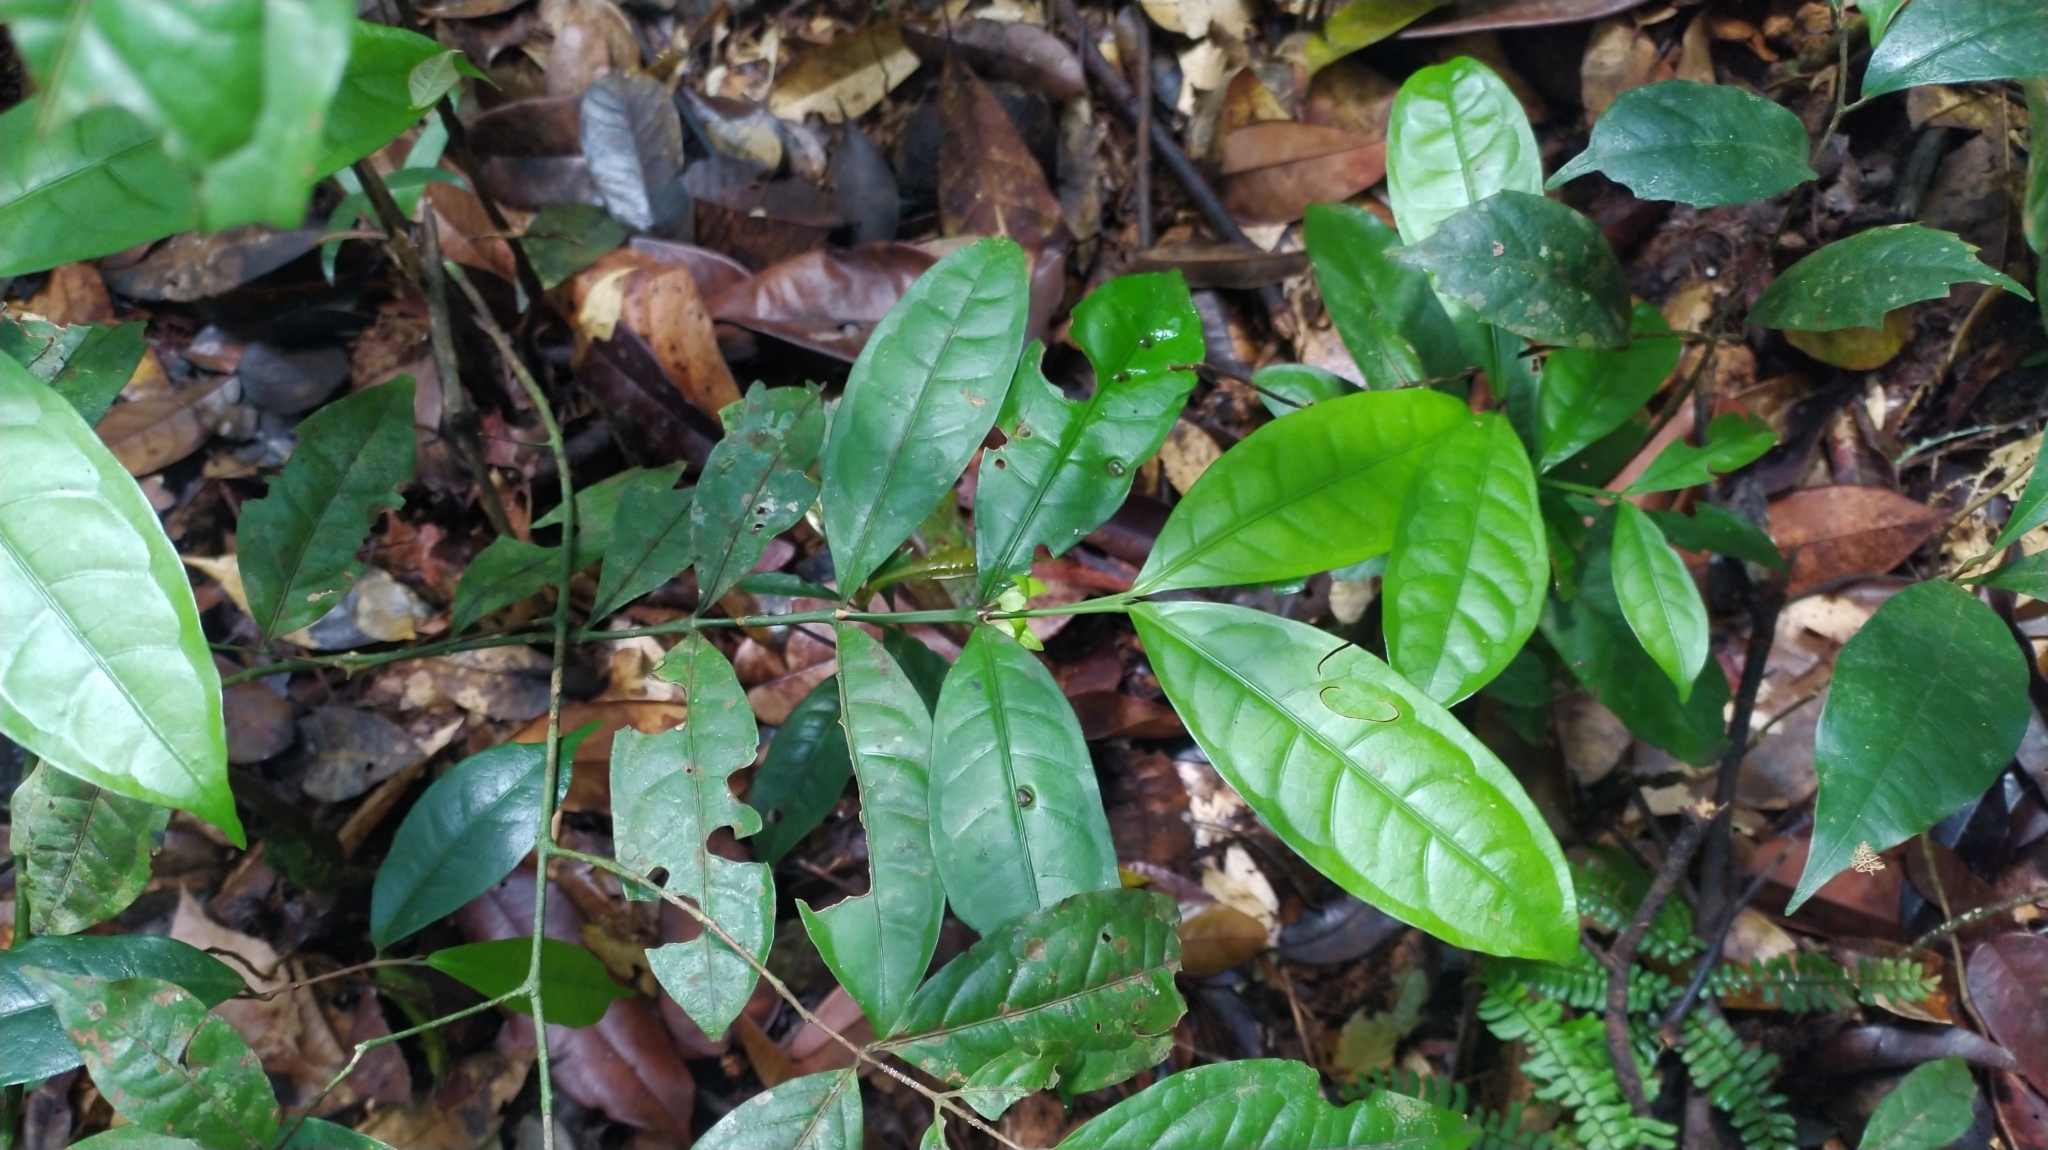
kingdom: Plantae
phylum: Tracheophyta
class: Magnoliopsida
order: Gentianales
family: Rubiaceae
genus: Faramea
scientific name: Faramea guianensis
